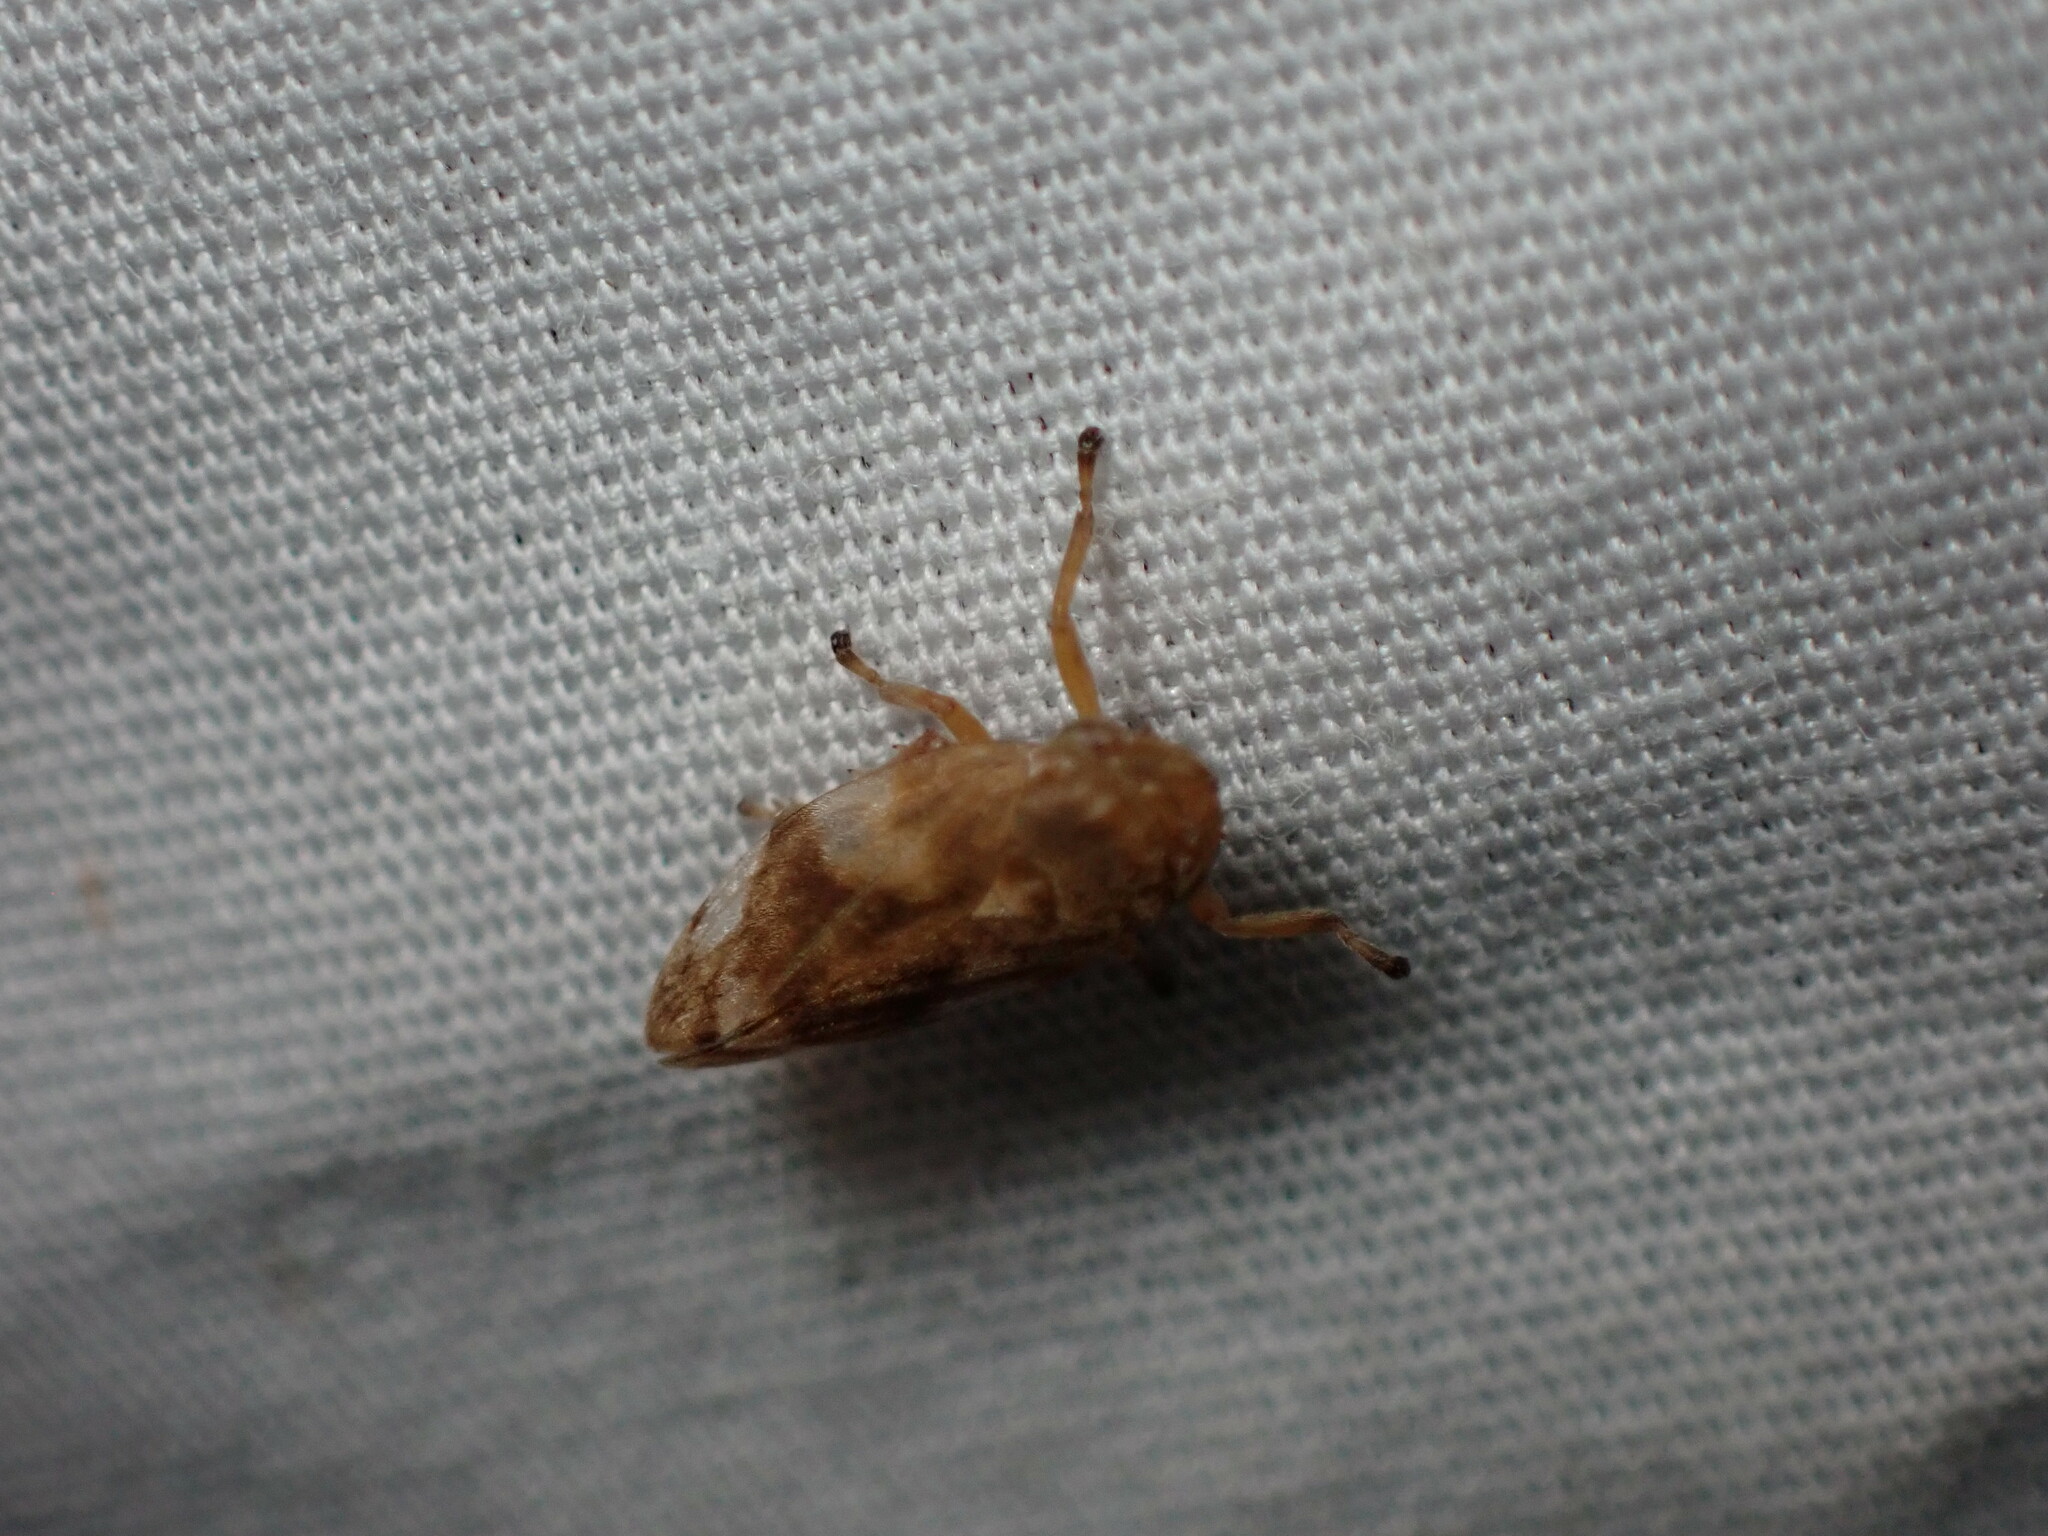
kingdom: Animalia
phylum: Arthropoda
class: Insecta
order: Hemiptera
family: Aphrophoridae
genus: Philaenus
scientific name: Philaenus spumarius
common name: Meadow spittlebug
